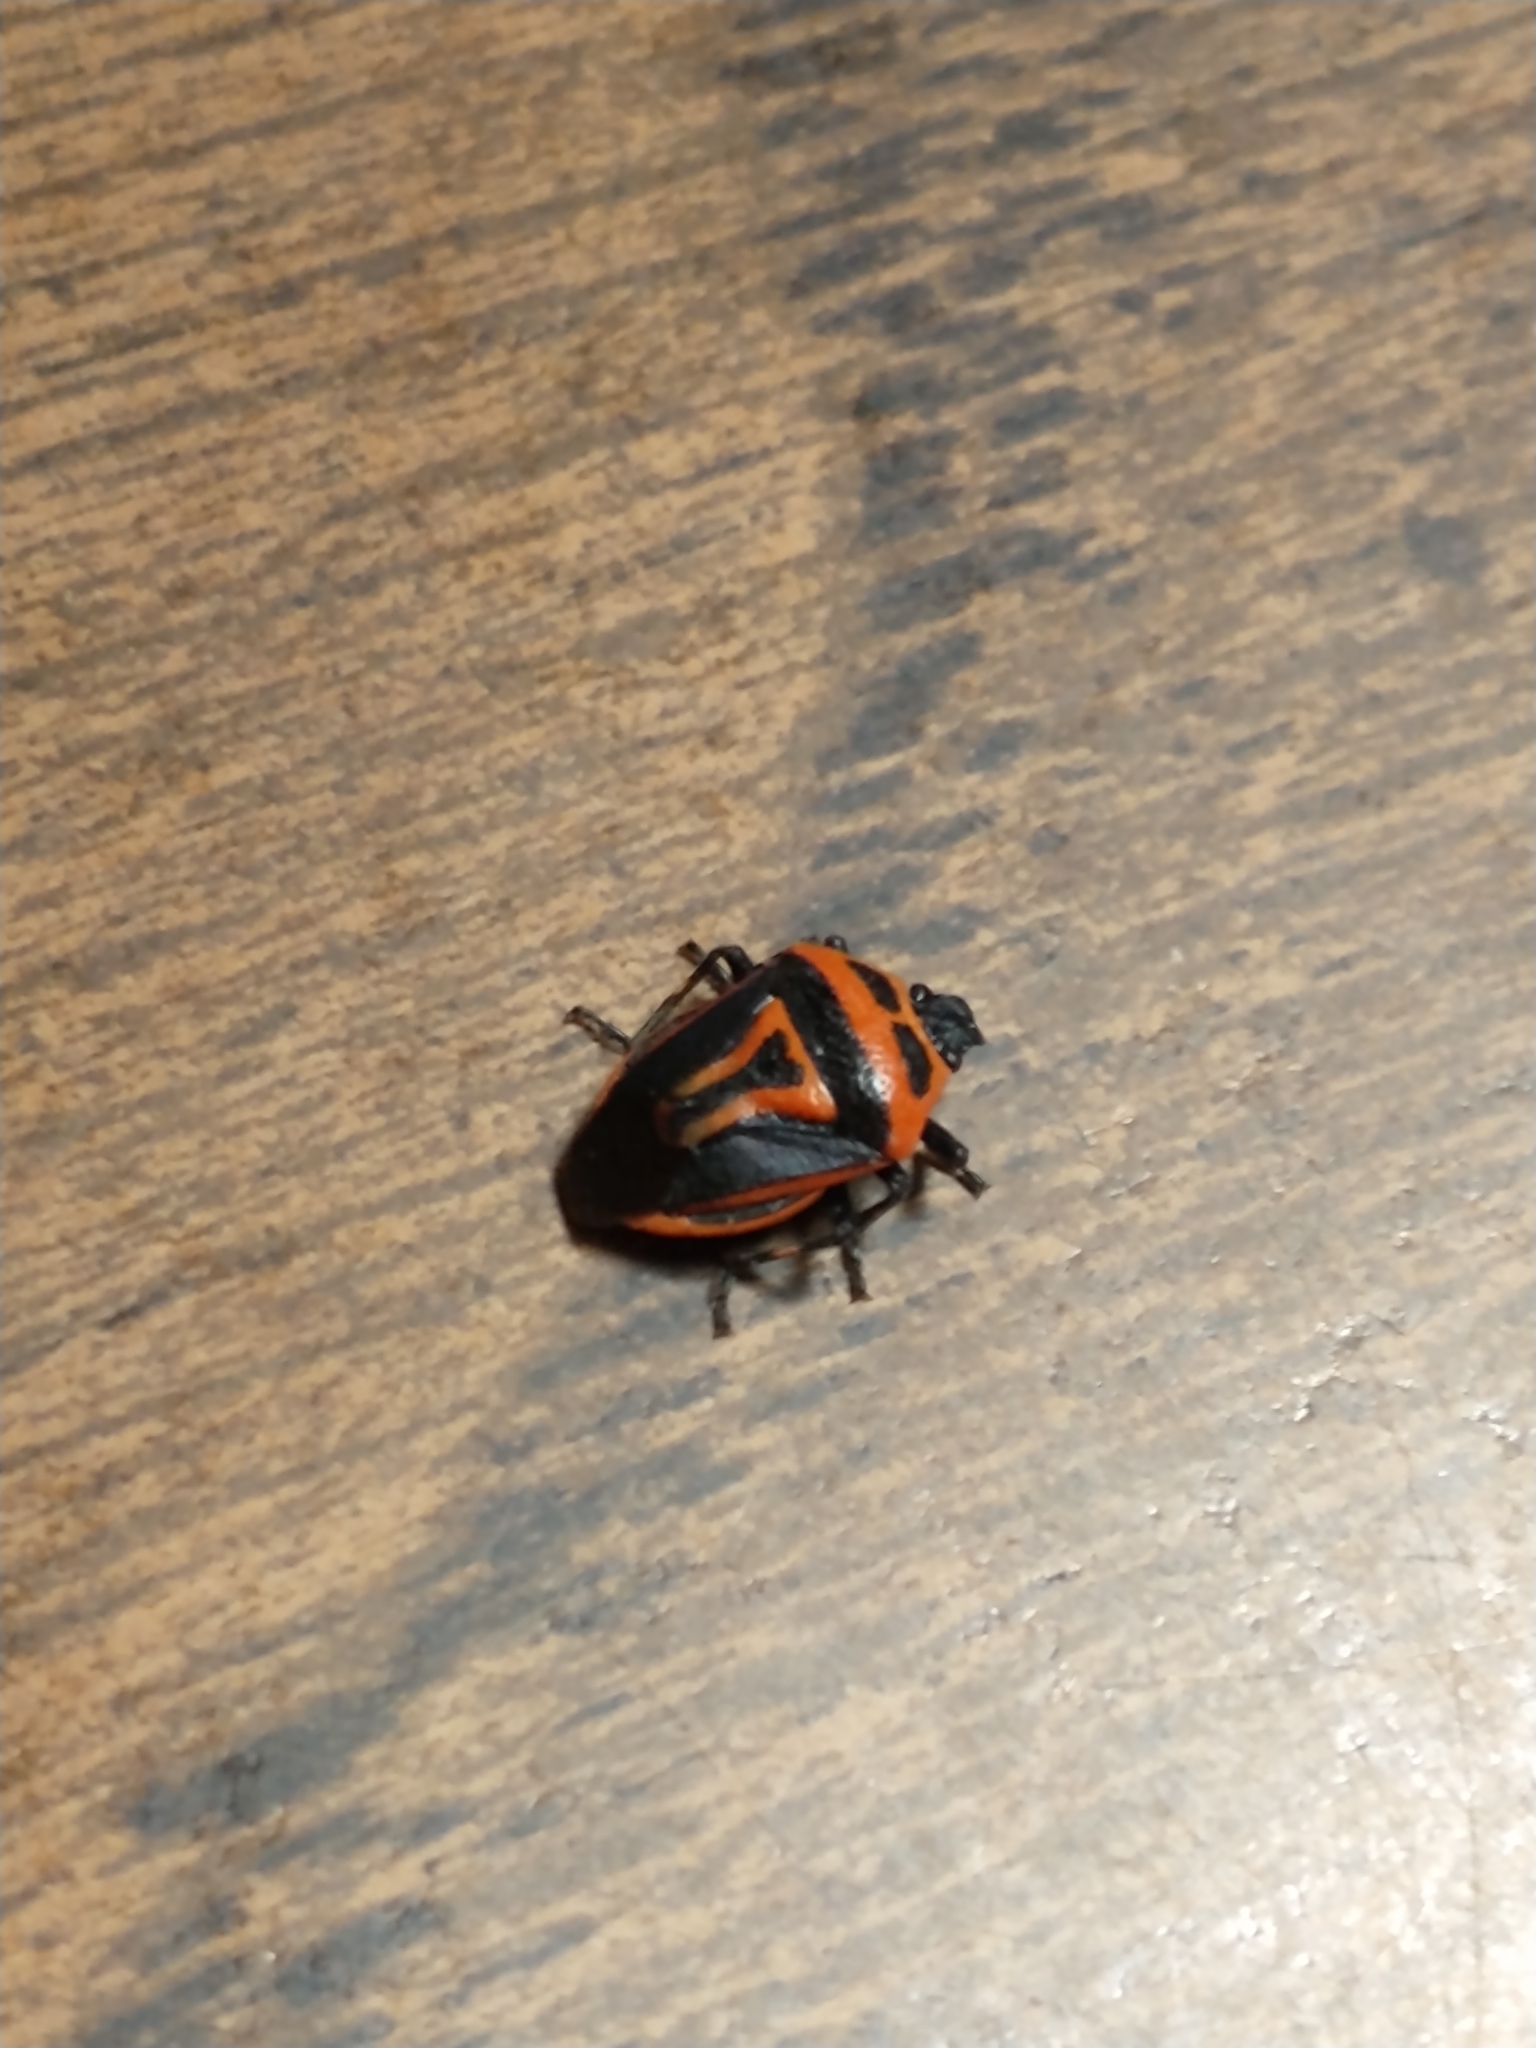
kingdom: Animalia
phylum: Arthropoda
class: Insecta
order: Hemiptera
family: Pentatomidae
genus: Perillus
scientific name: Perillus bioculatus
